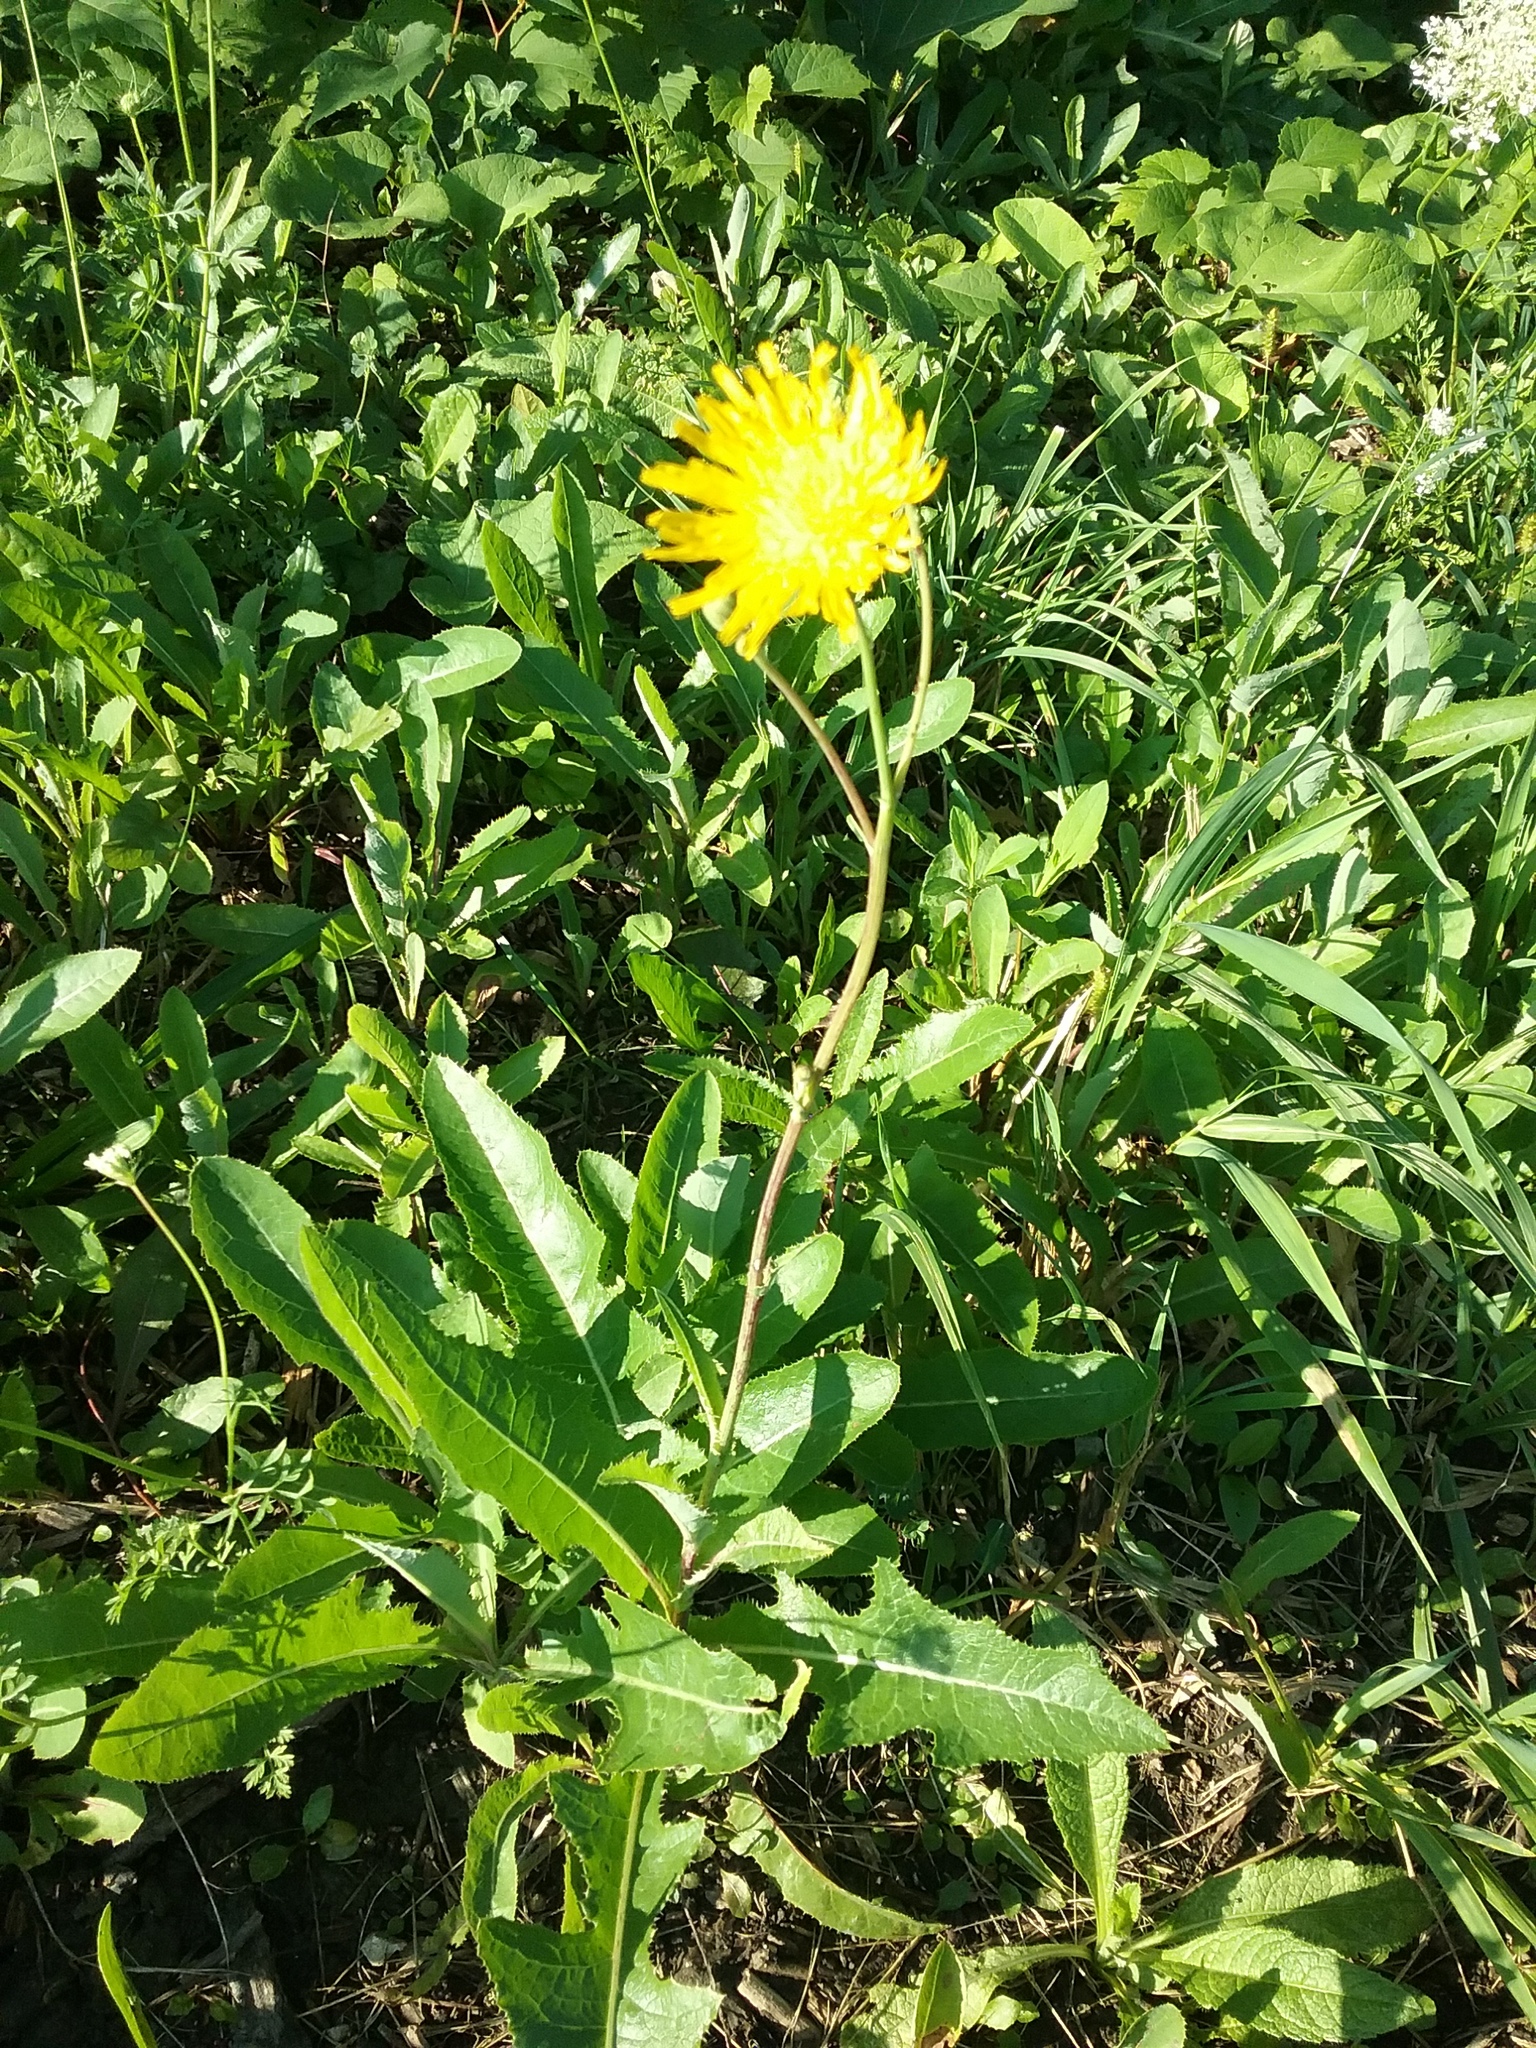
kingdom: Plantae
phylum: Tracheophyta
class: Magnoliopsida
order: Asterales
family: Asteraceae
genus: Sonchus
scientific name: Sonchus arvensis
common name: Perennial sow-thistle
